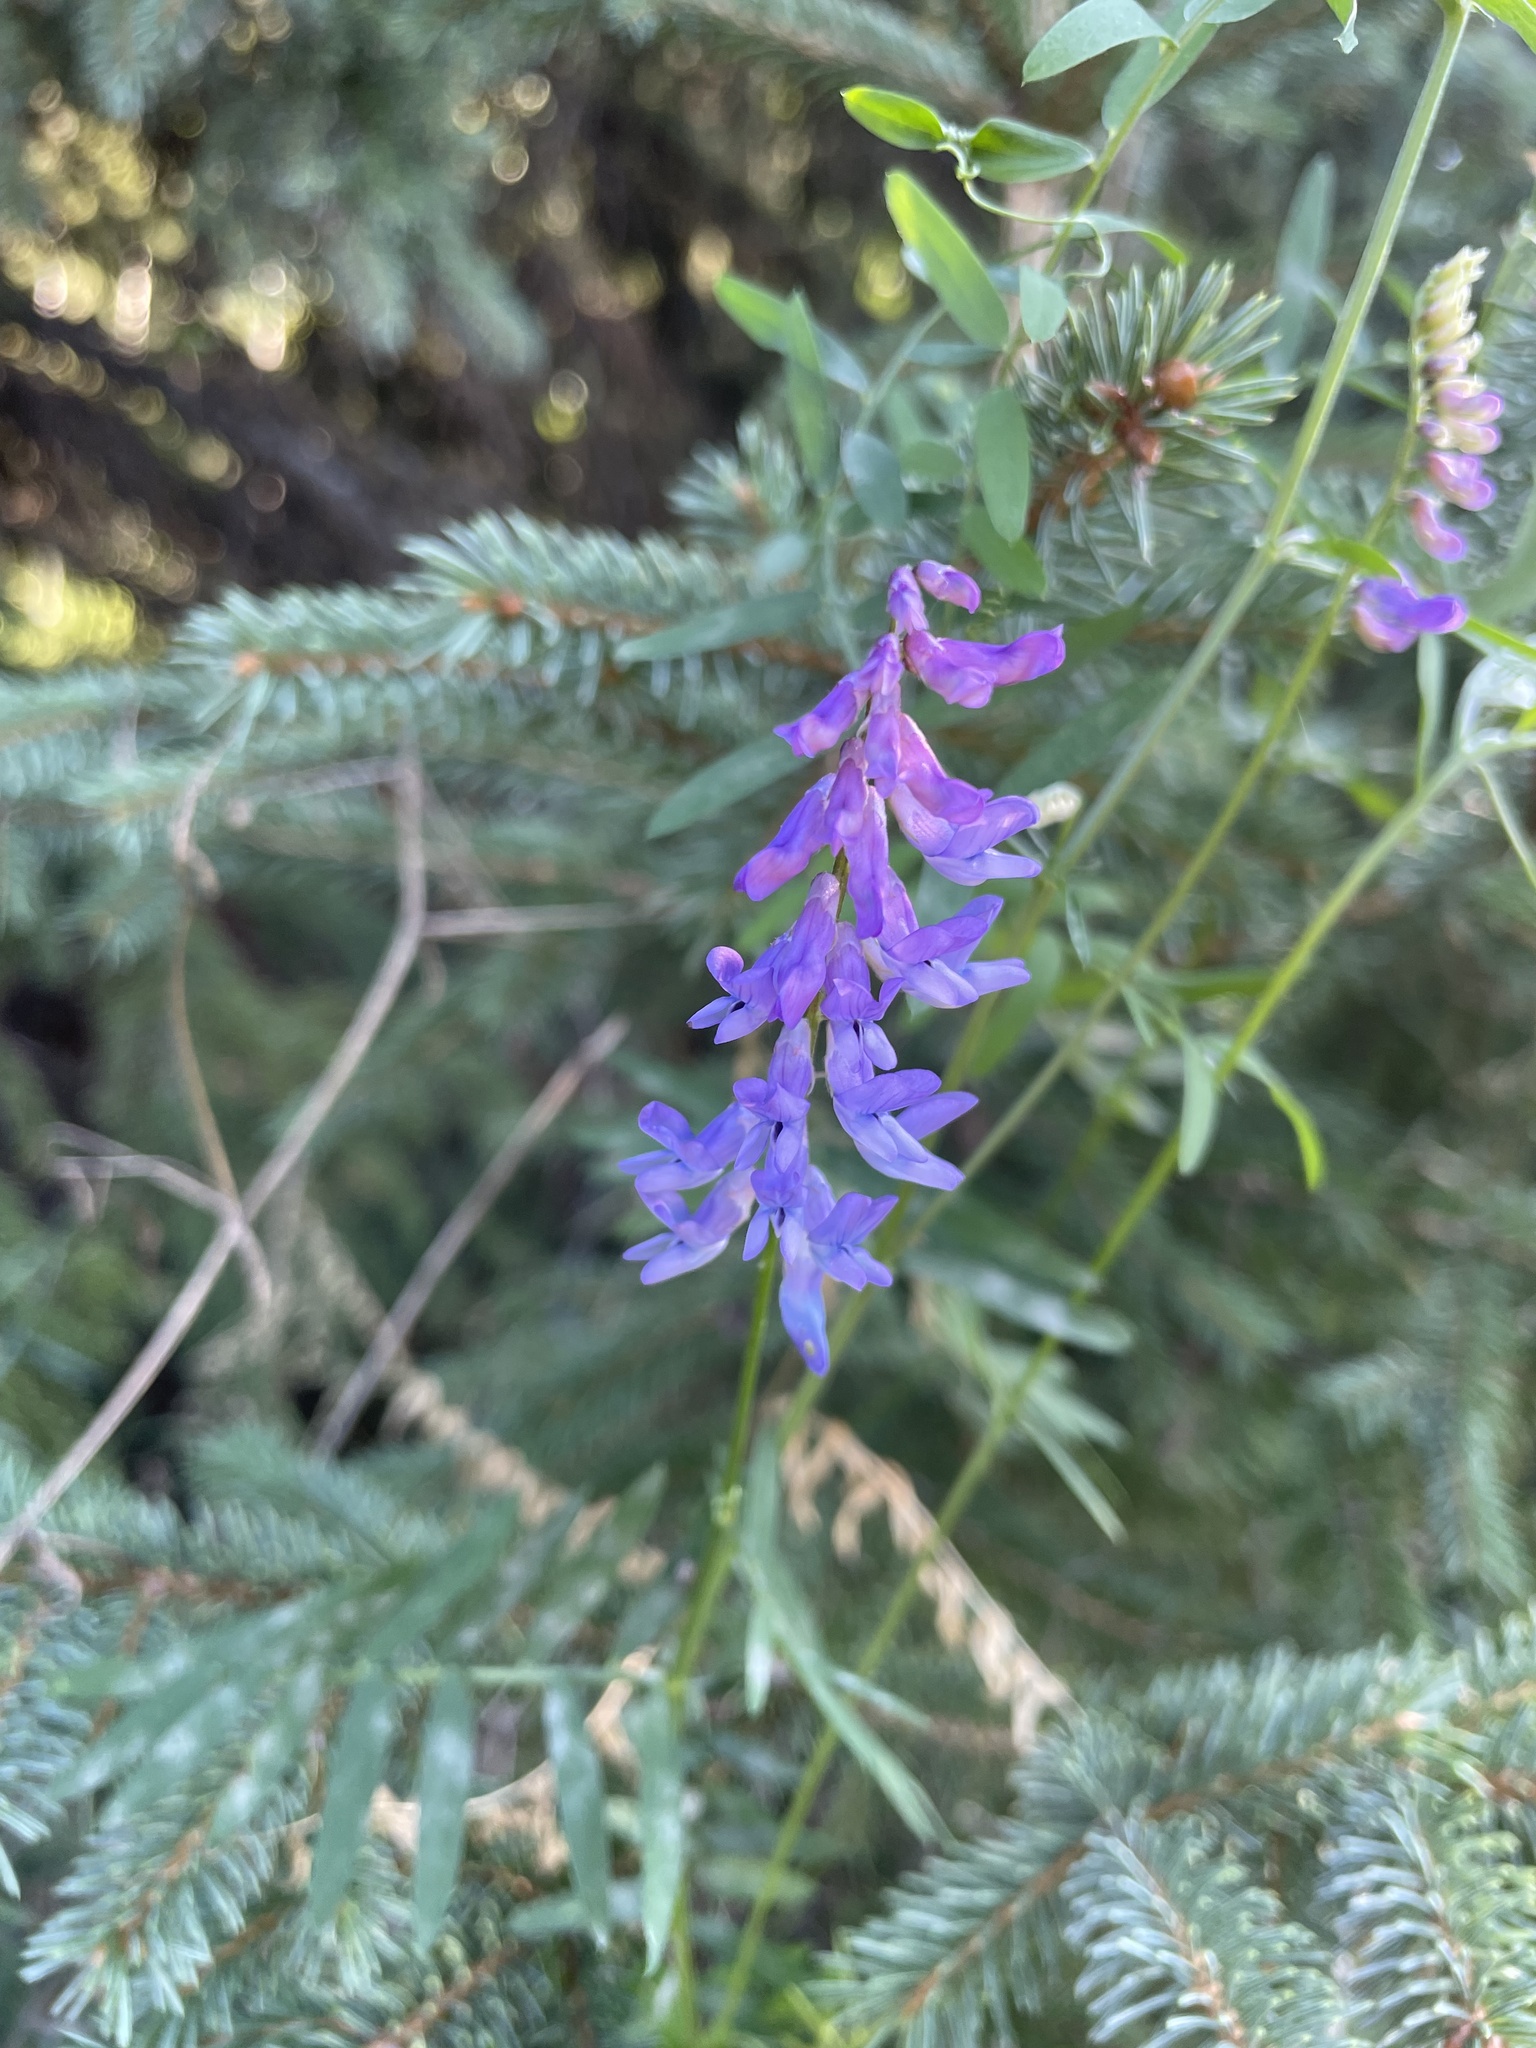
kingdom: Plantae
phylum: Tracheophyta
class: Magnoliopsida
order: Fabales
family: Fabaceae
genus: Vicia
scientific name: Vicia cracca
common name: Bird vetch
